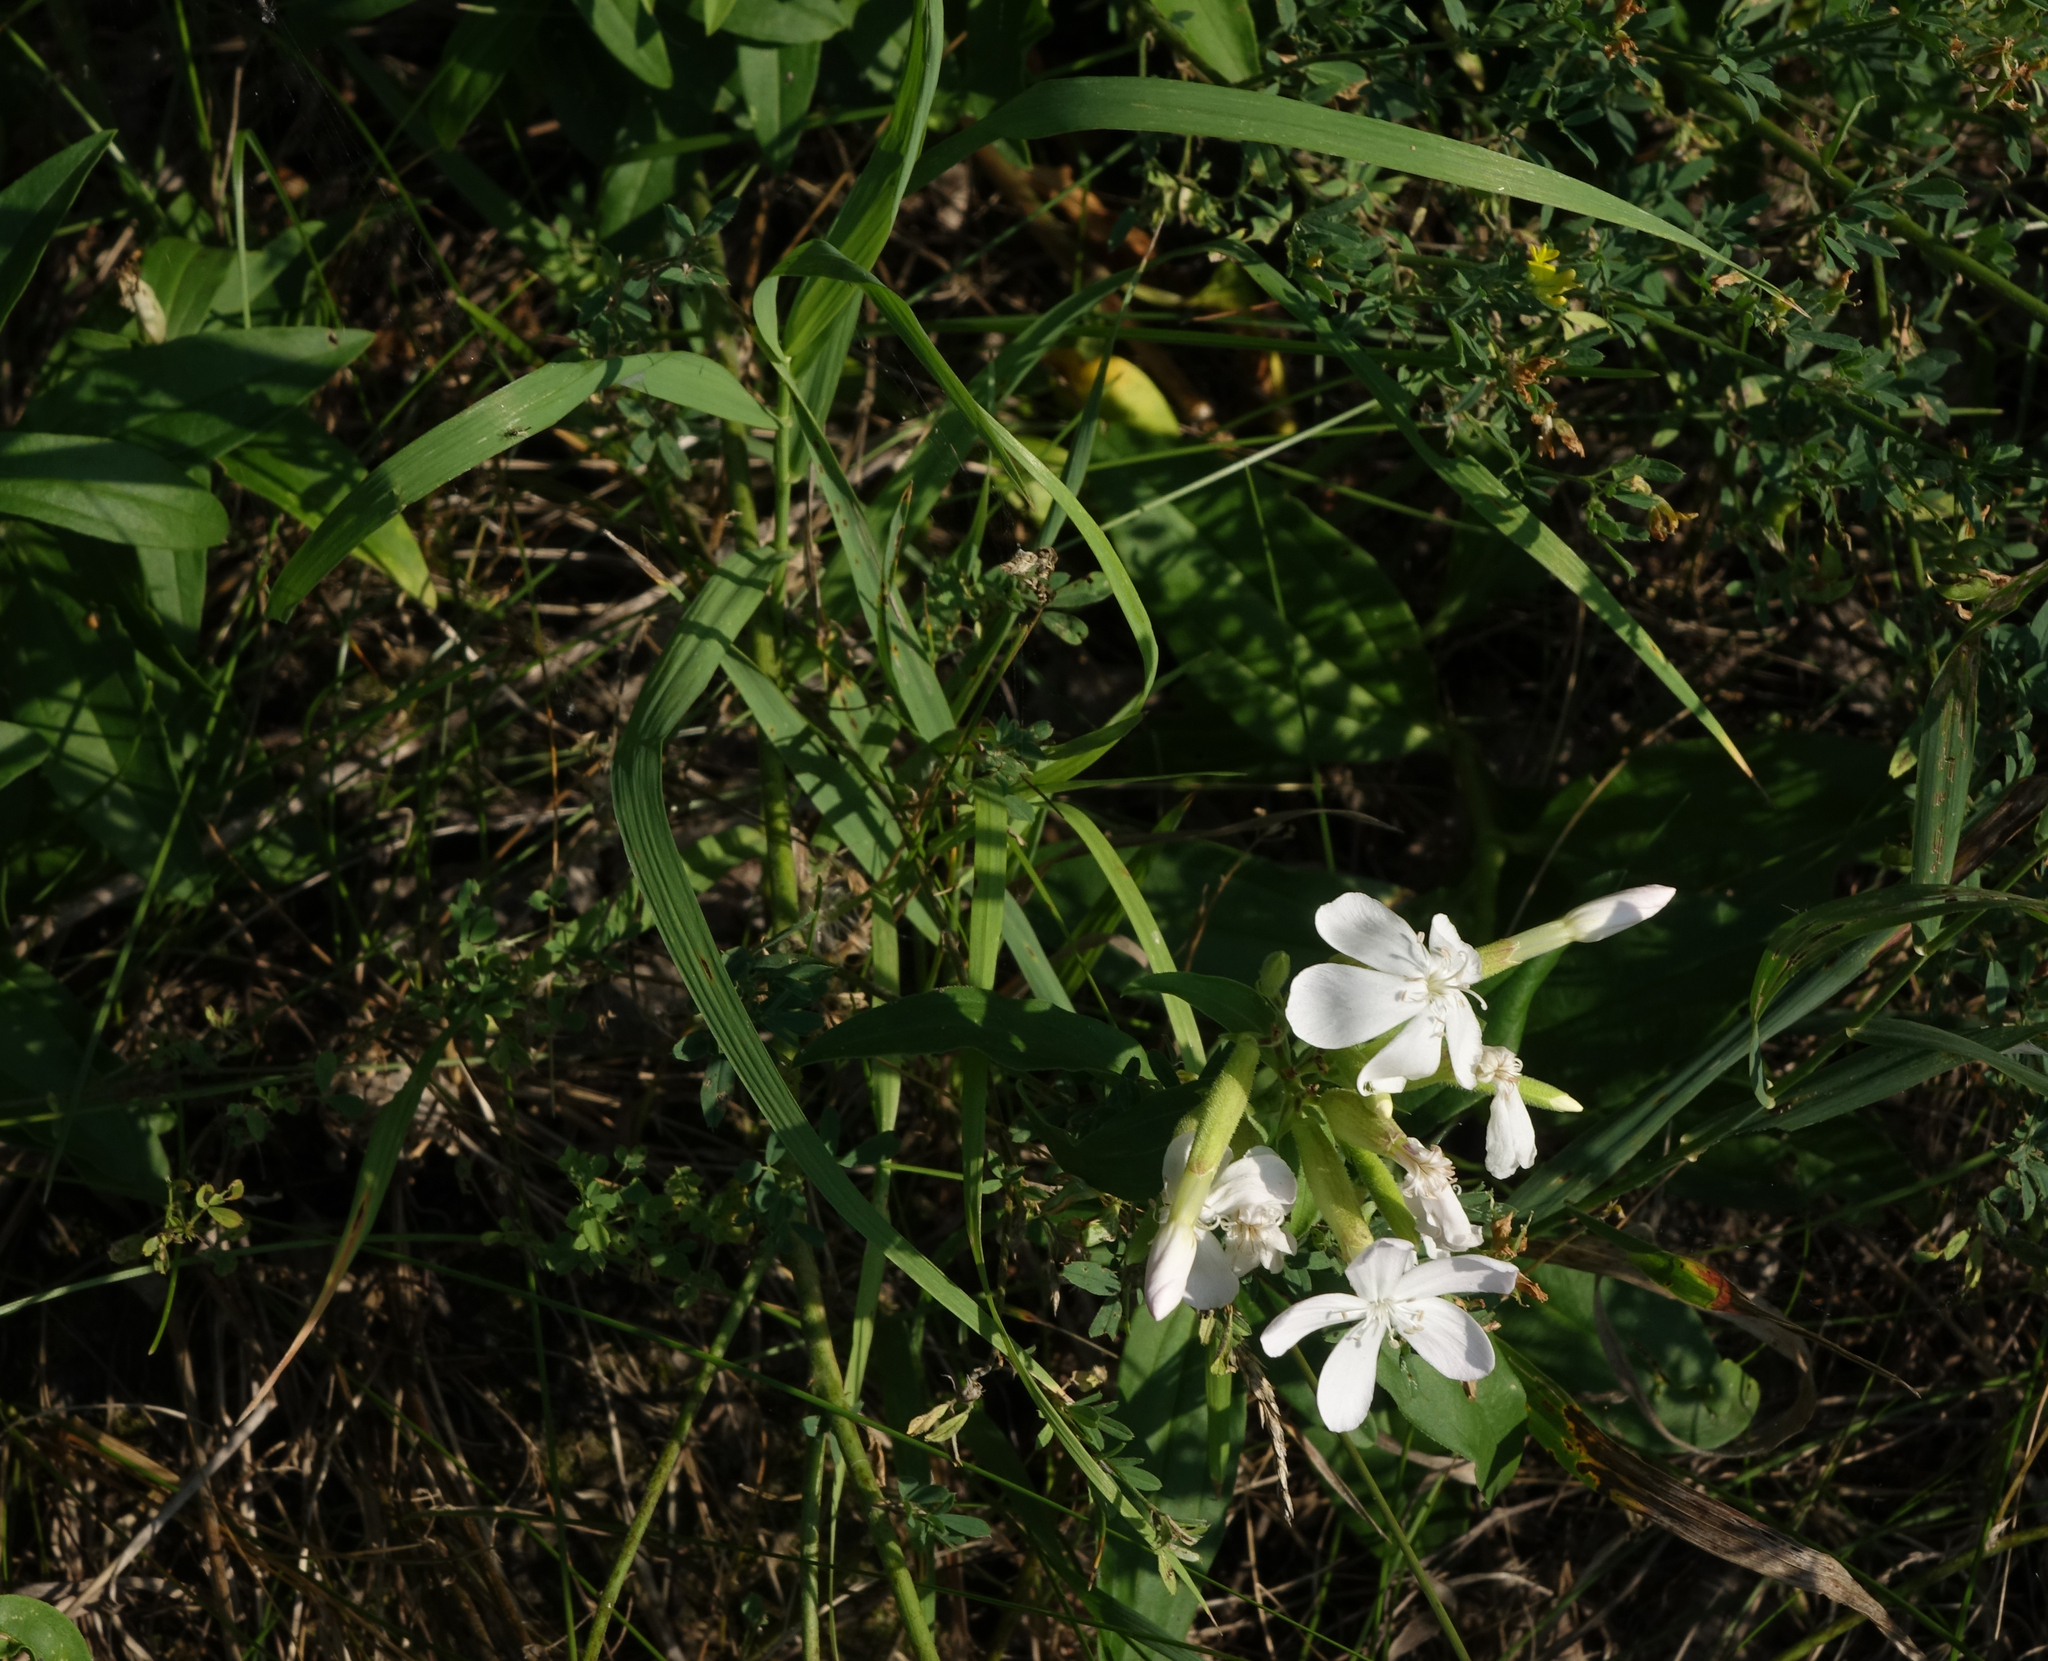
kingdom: Plantae
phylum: Tracheophyta
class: Magnoliopsida
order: Caryophyllales
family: Caryophyllaceae
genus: Saponaria
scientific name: Saponaria officinalis
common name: Soapwort
